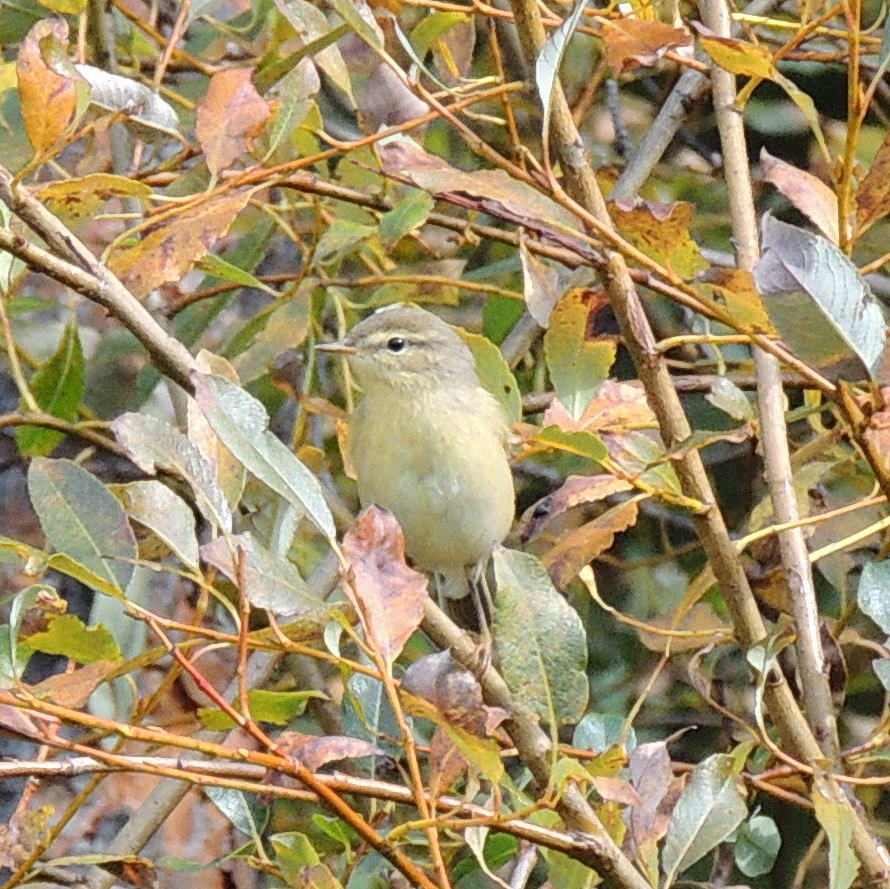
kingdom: Animalia
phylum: Chordata
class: Aves
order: Passeriformes
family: Phylloscopidae
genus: Phylloscopus
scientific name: Phylloscopus collybita
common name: Common chiffchaff
